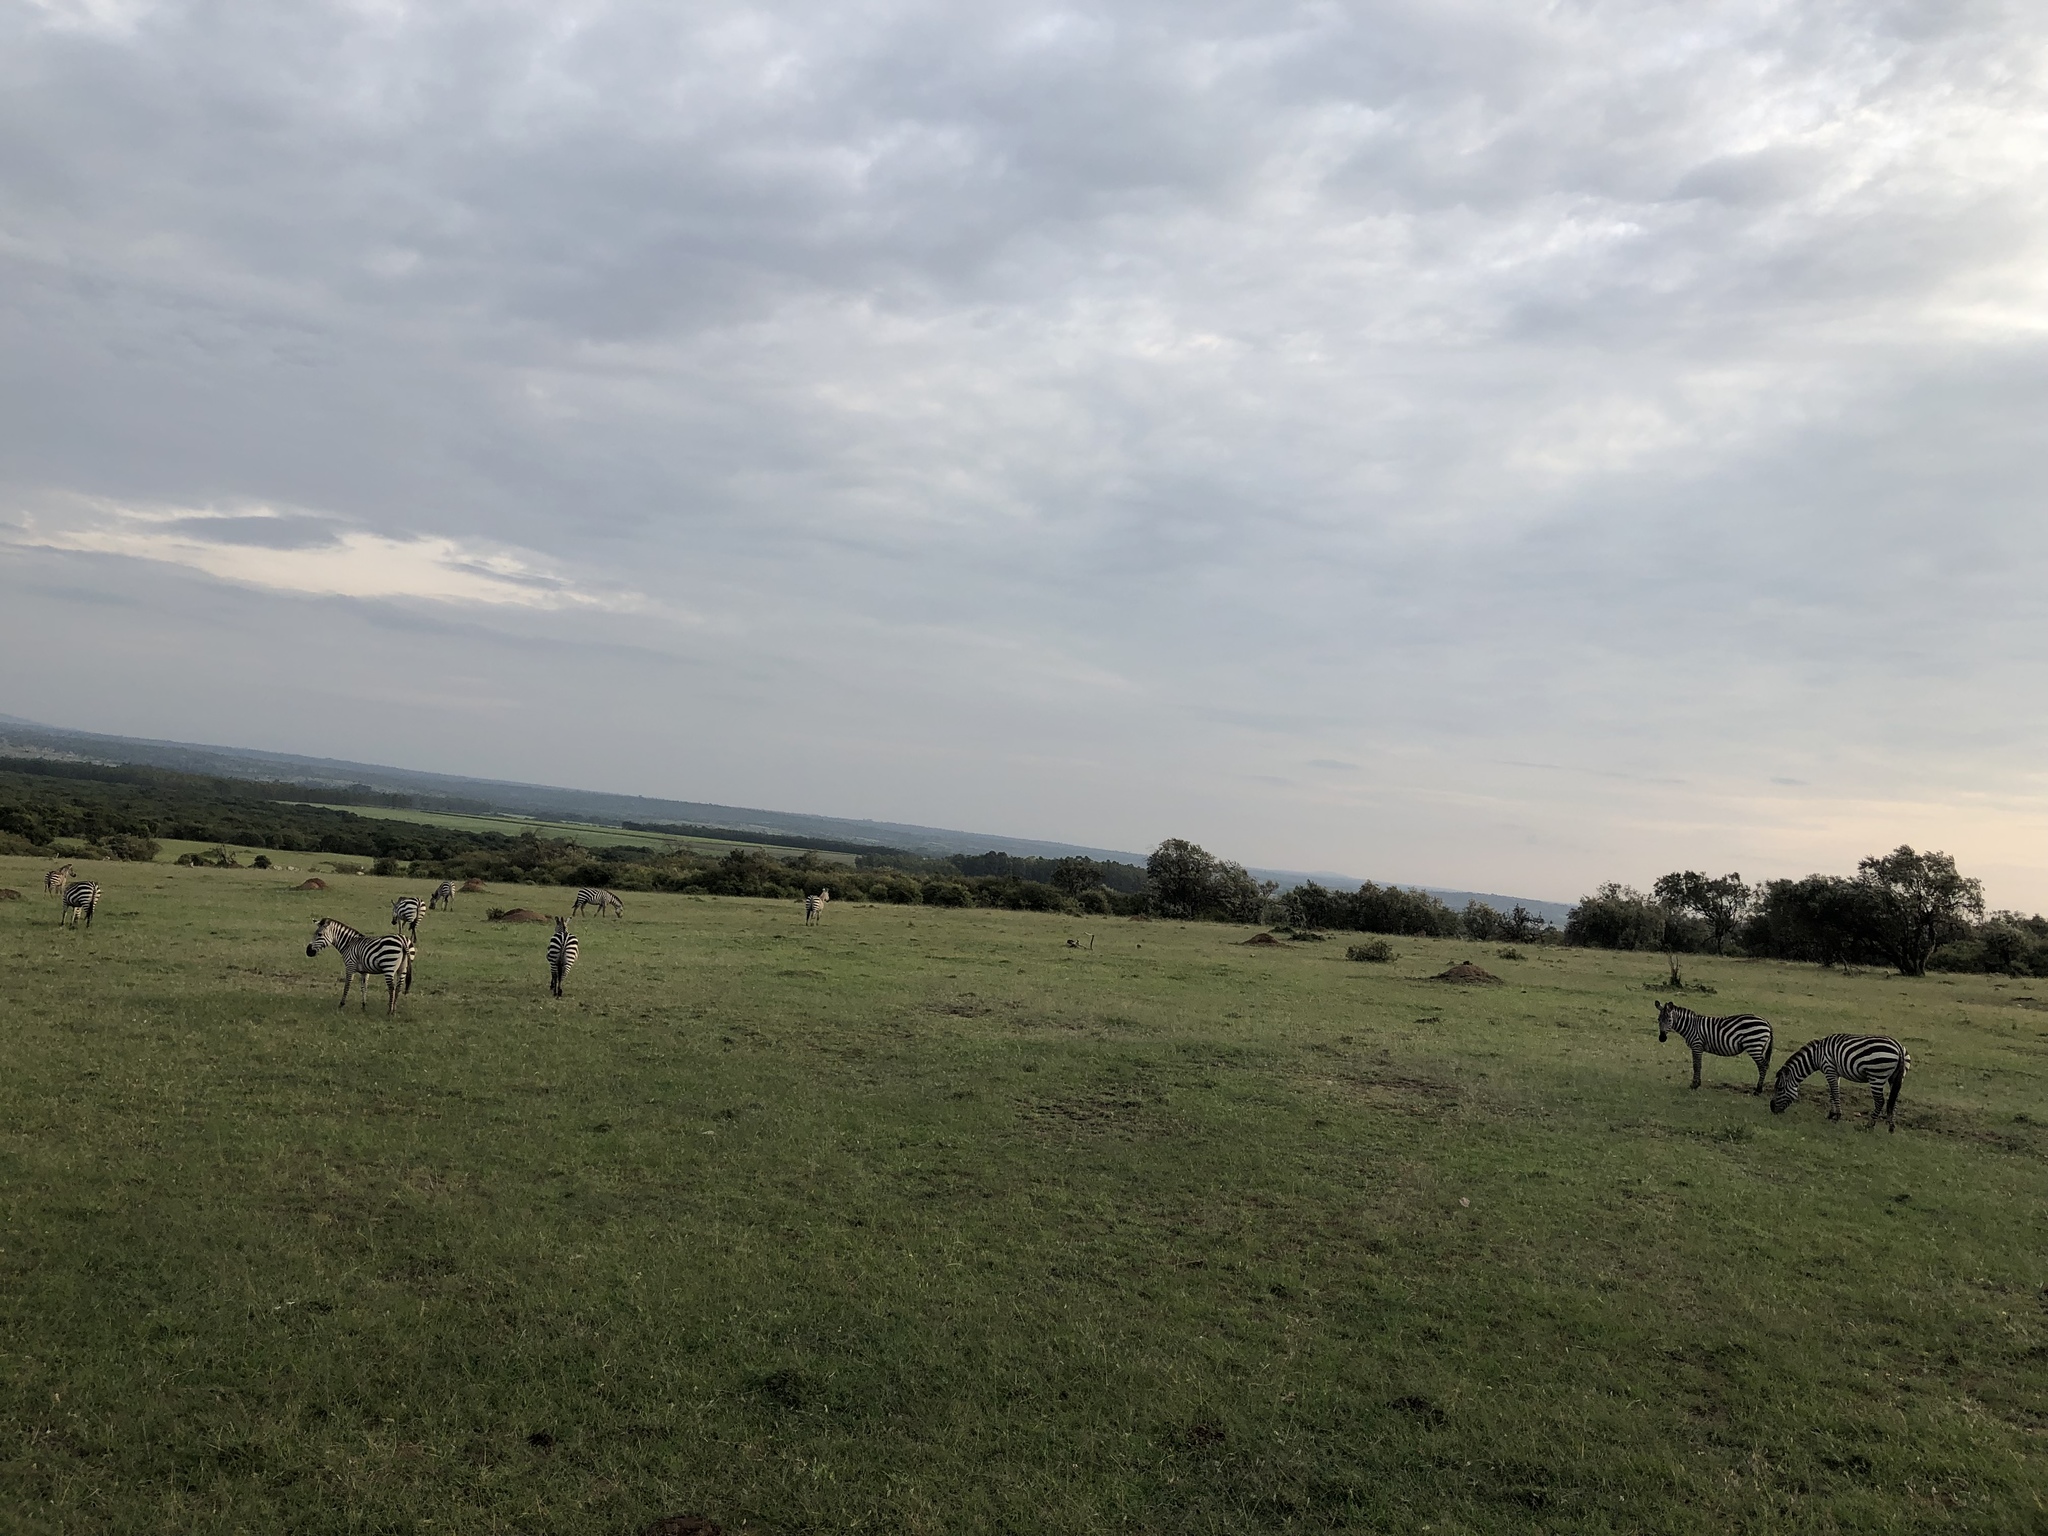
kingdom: Animalia
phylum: Chordata
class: Mammalia
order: Perissodactyla
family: Equidae
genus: Equus
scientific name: Equus quagga
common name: Plains zebra
